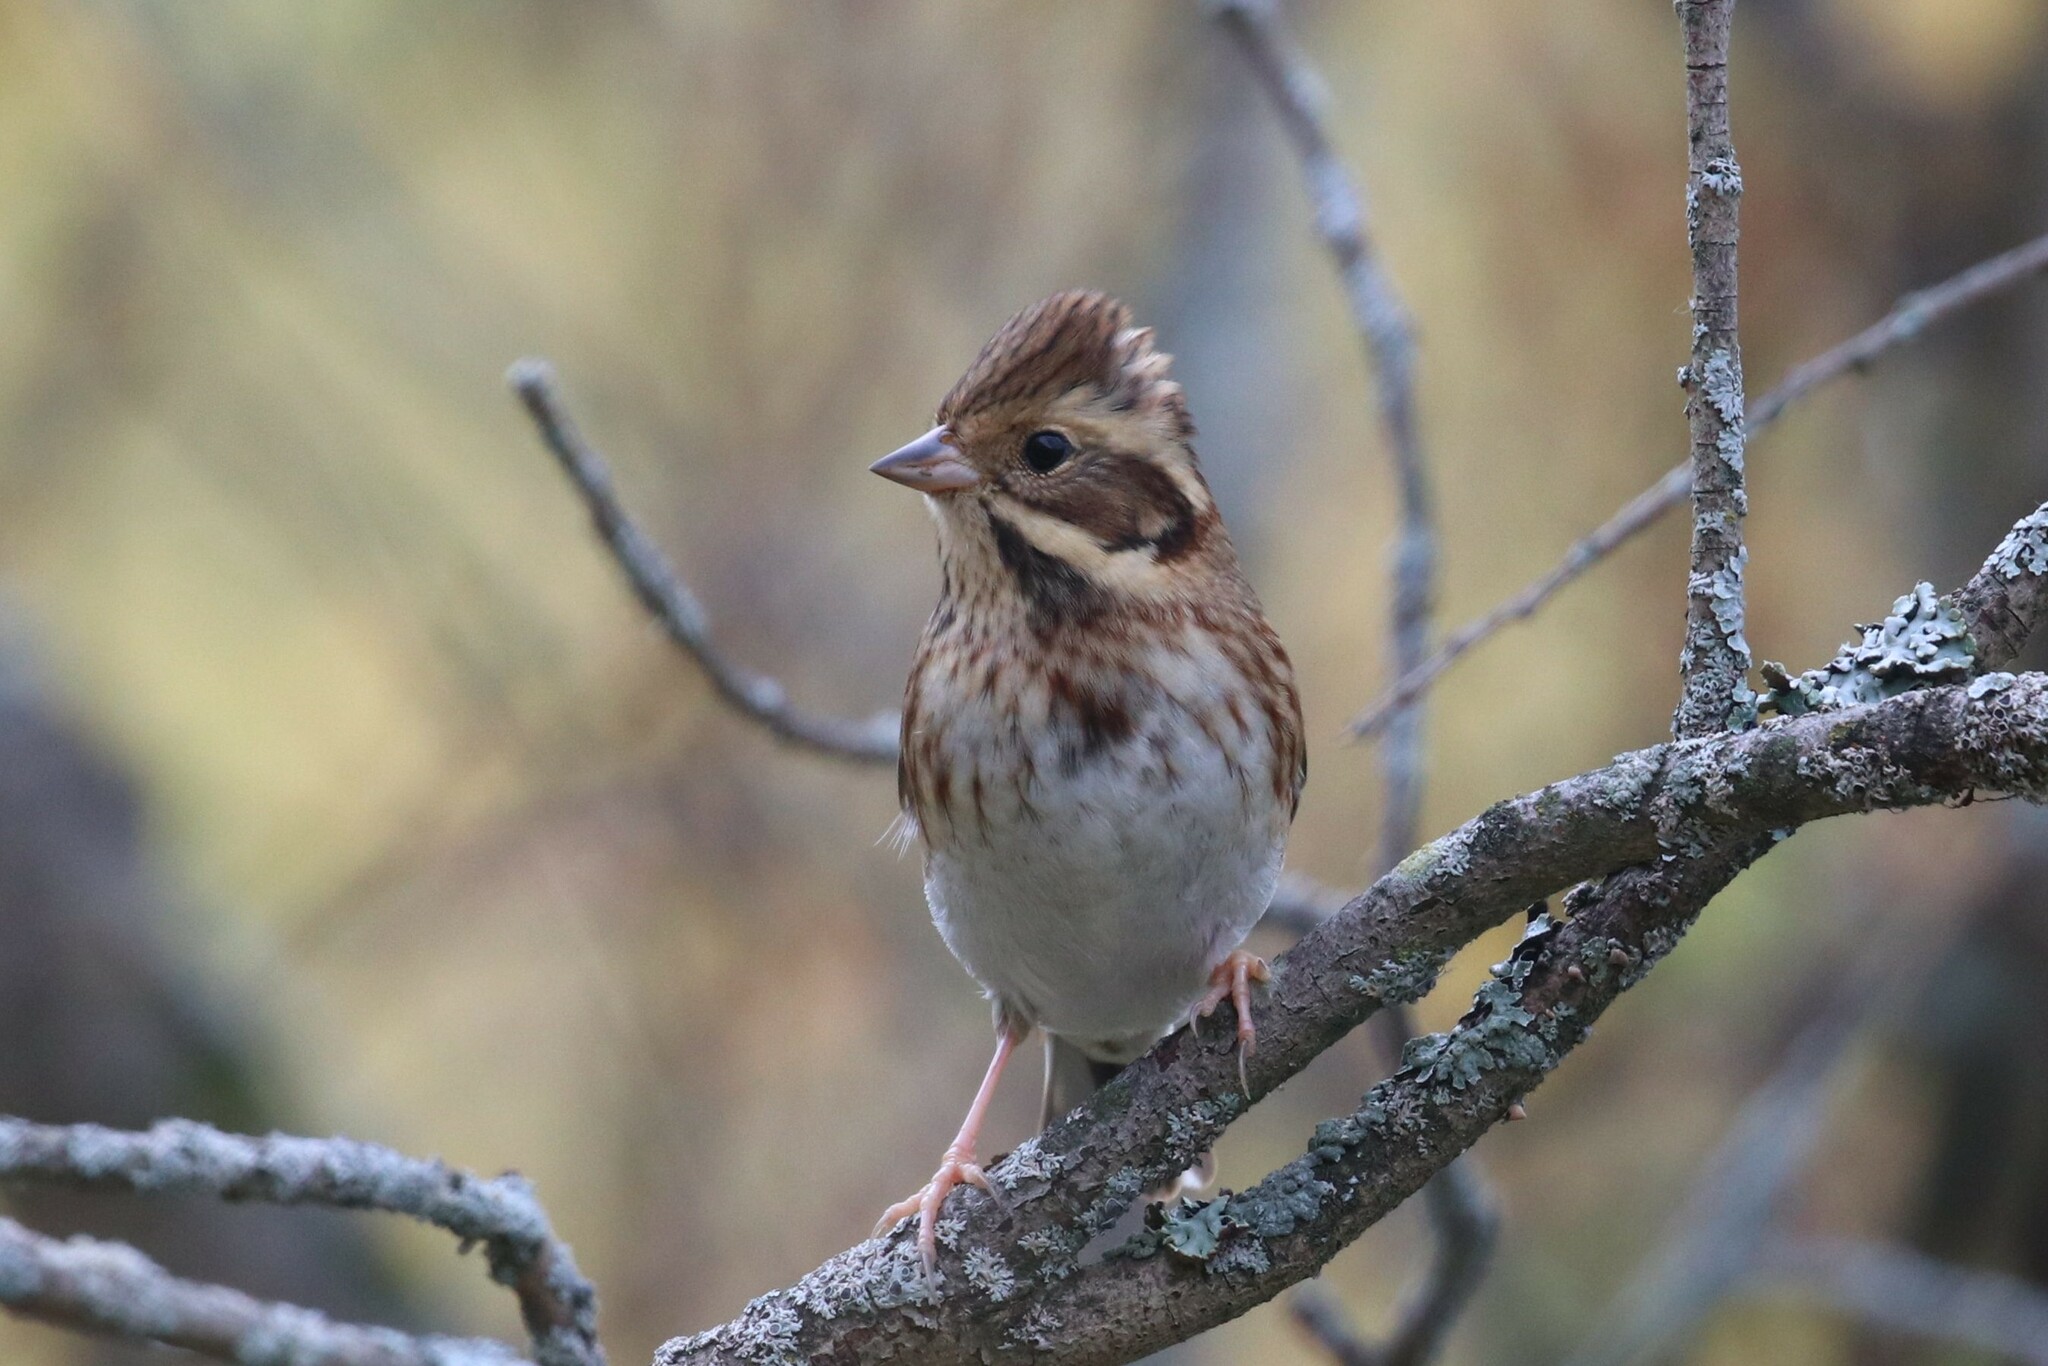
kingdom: Animalia
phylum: Chordata
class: Aves
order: Passeriformes
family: Emberizidae
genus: Emberiza
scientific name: Emberiza rustica
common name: Rustic bunting
